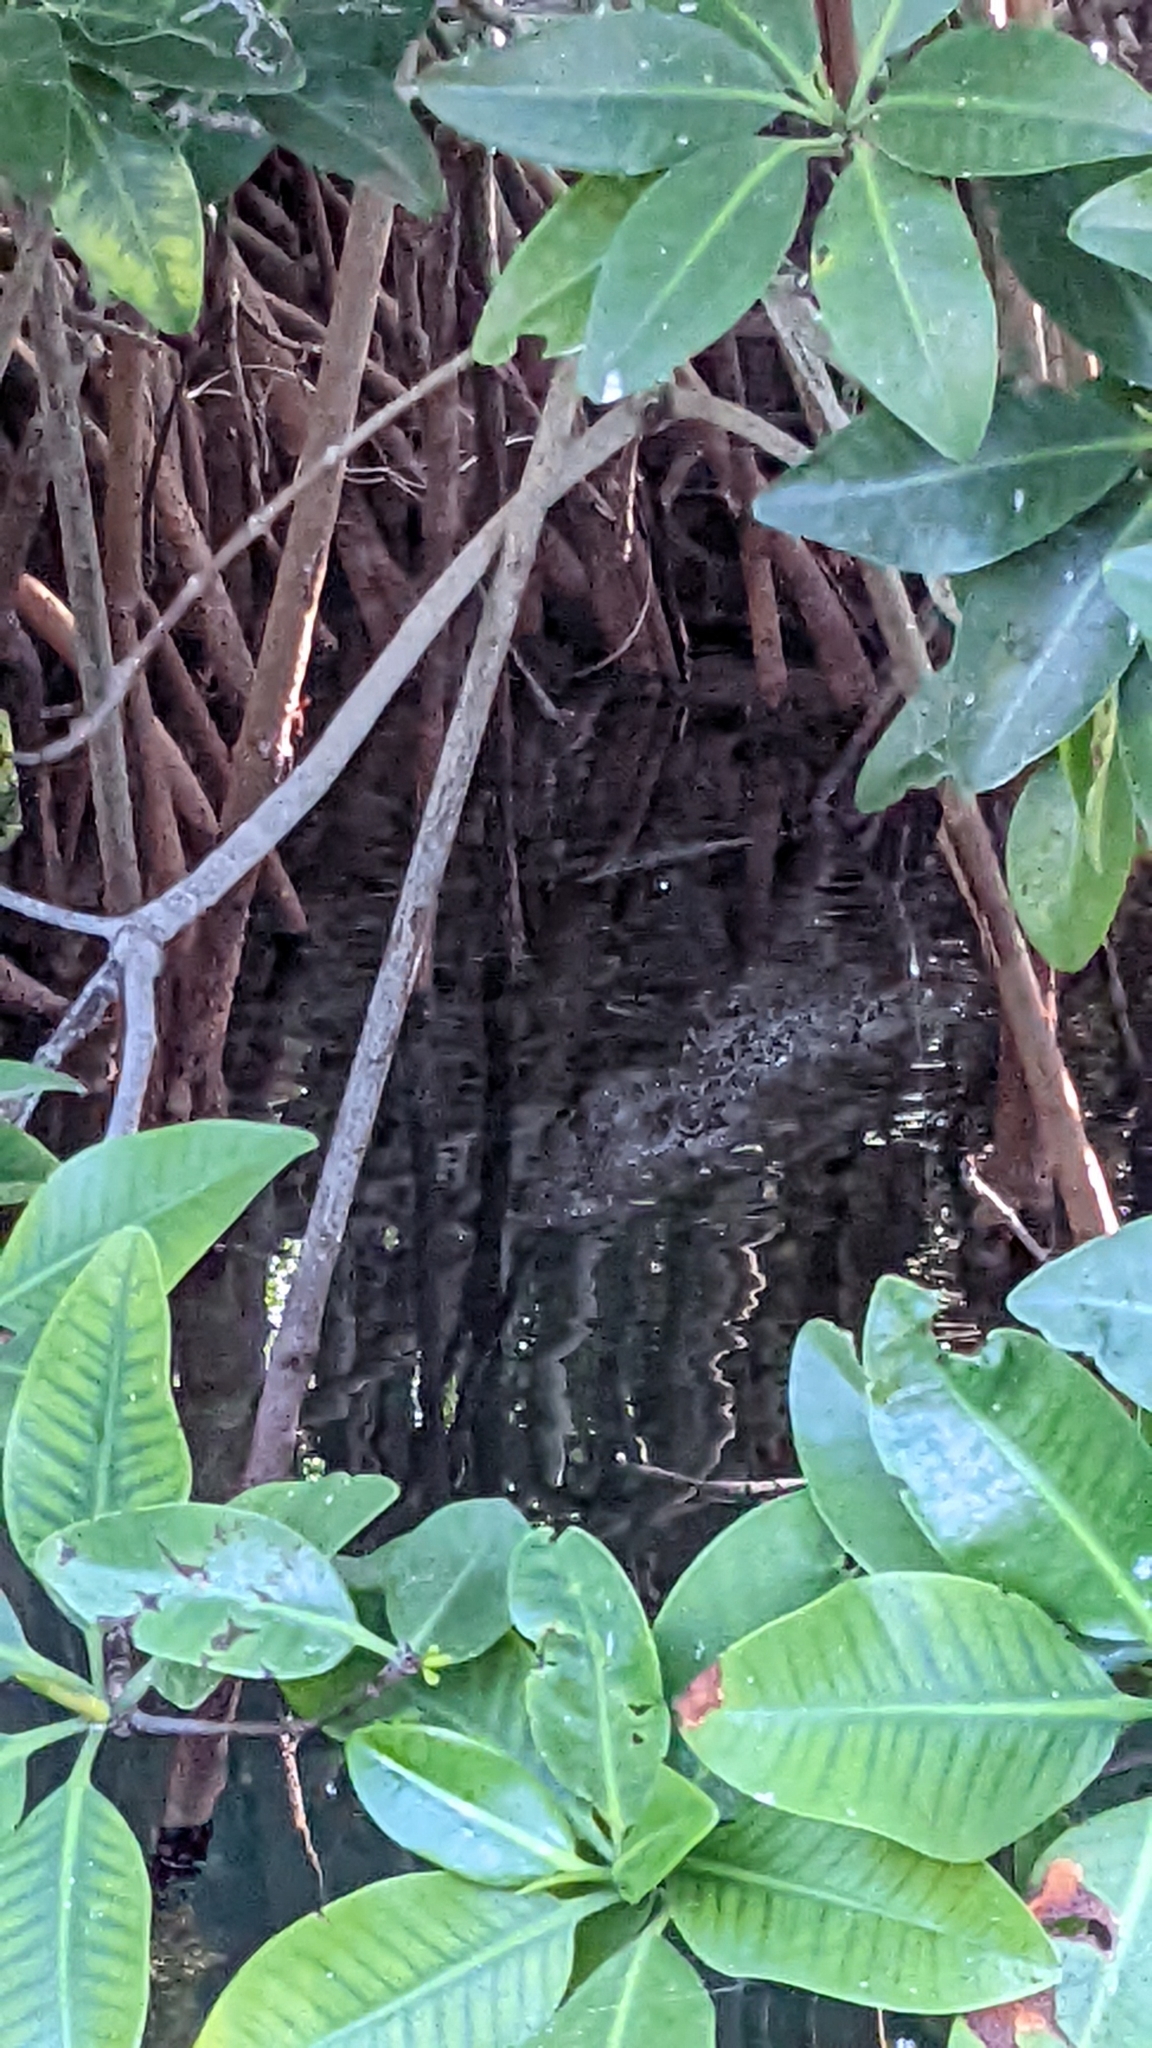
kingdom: Animalia
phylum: Chordata
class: Crocodylia
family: Crocodylidae
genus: Crocodylus
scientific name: Crocodylus acutus
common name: American crocodile
